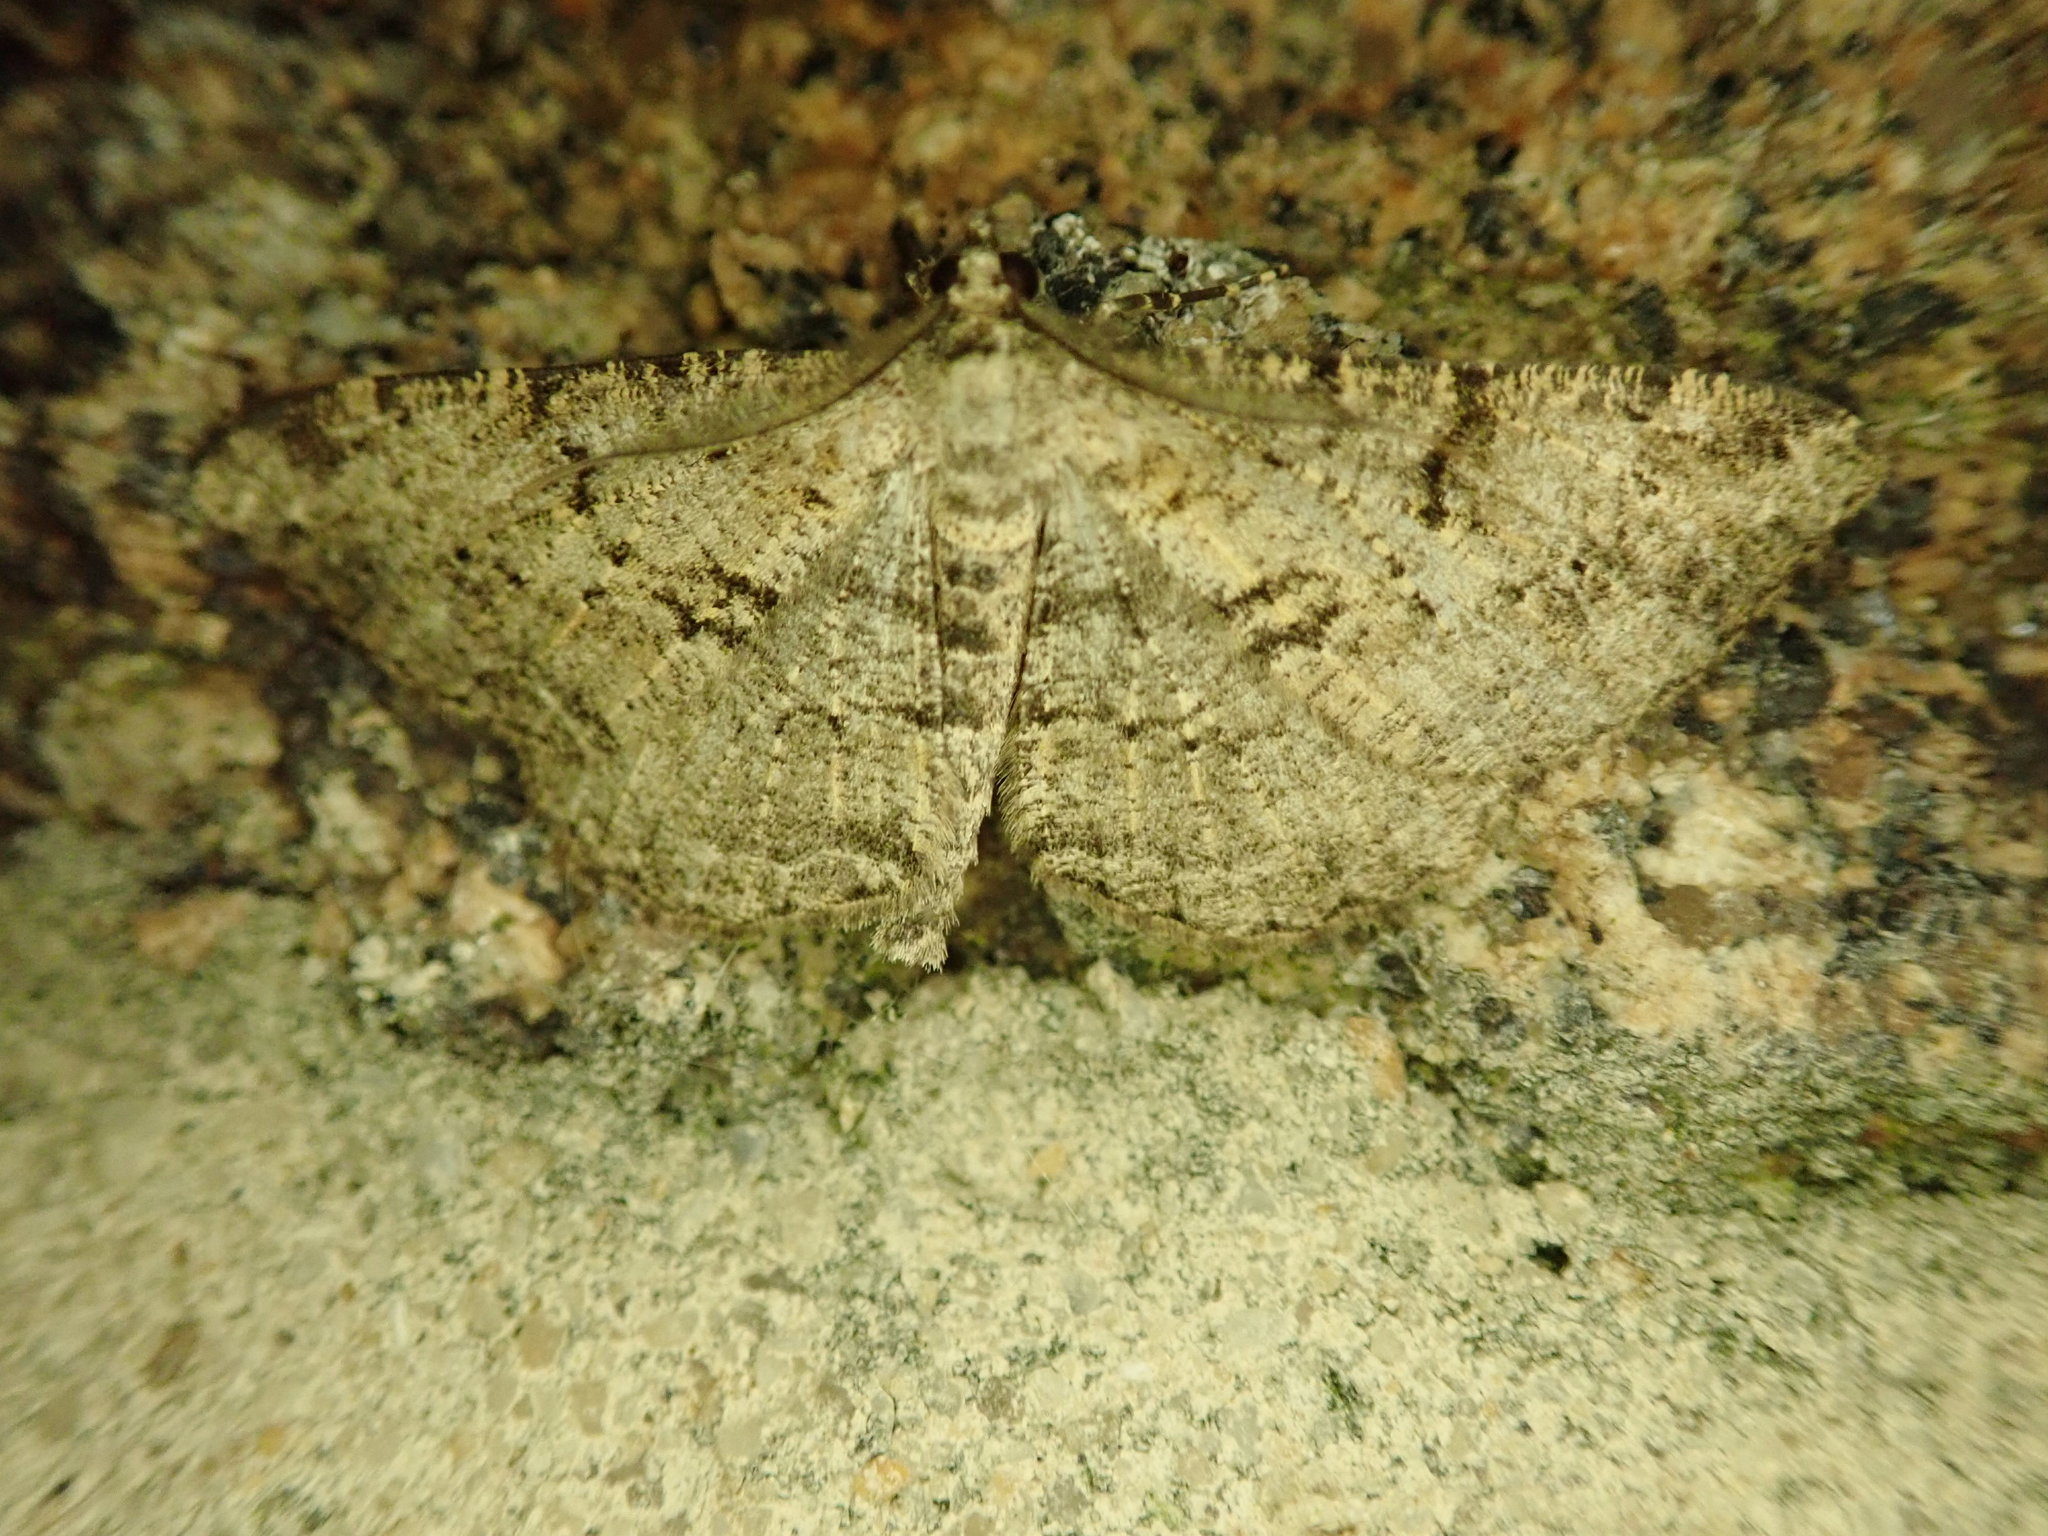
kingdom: Animalia
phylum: Arthropoda
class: Insecta
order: Lepidoptera
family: Geometridae
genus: Peribatodes
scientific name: Peribatodes rhomboidaria
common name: Willow beauty
